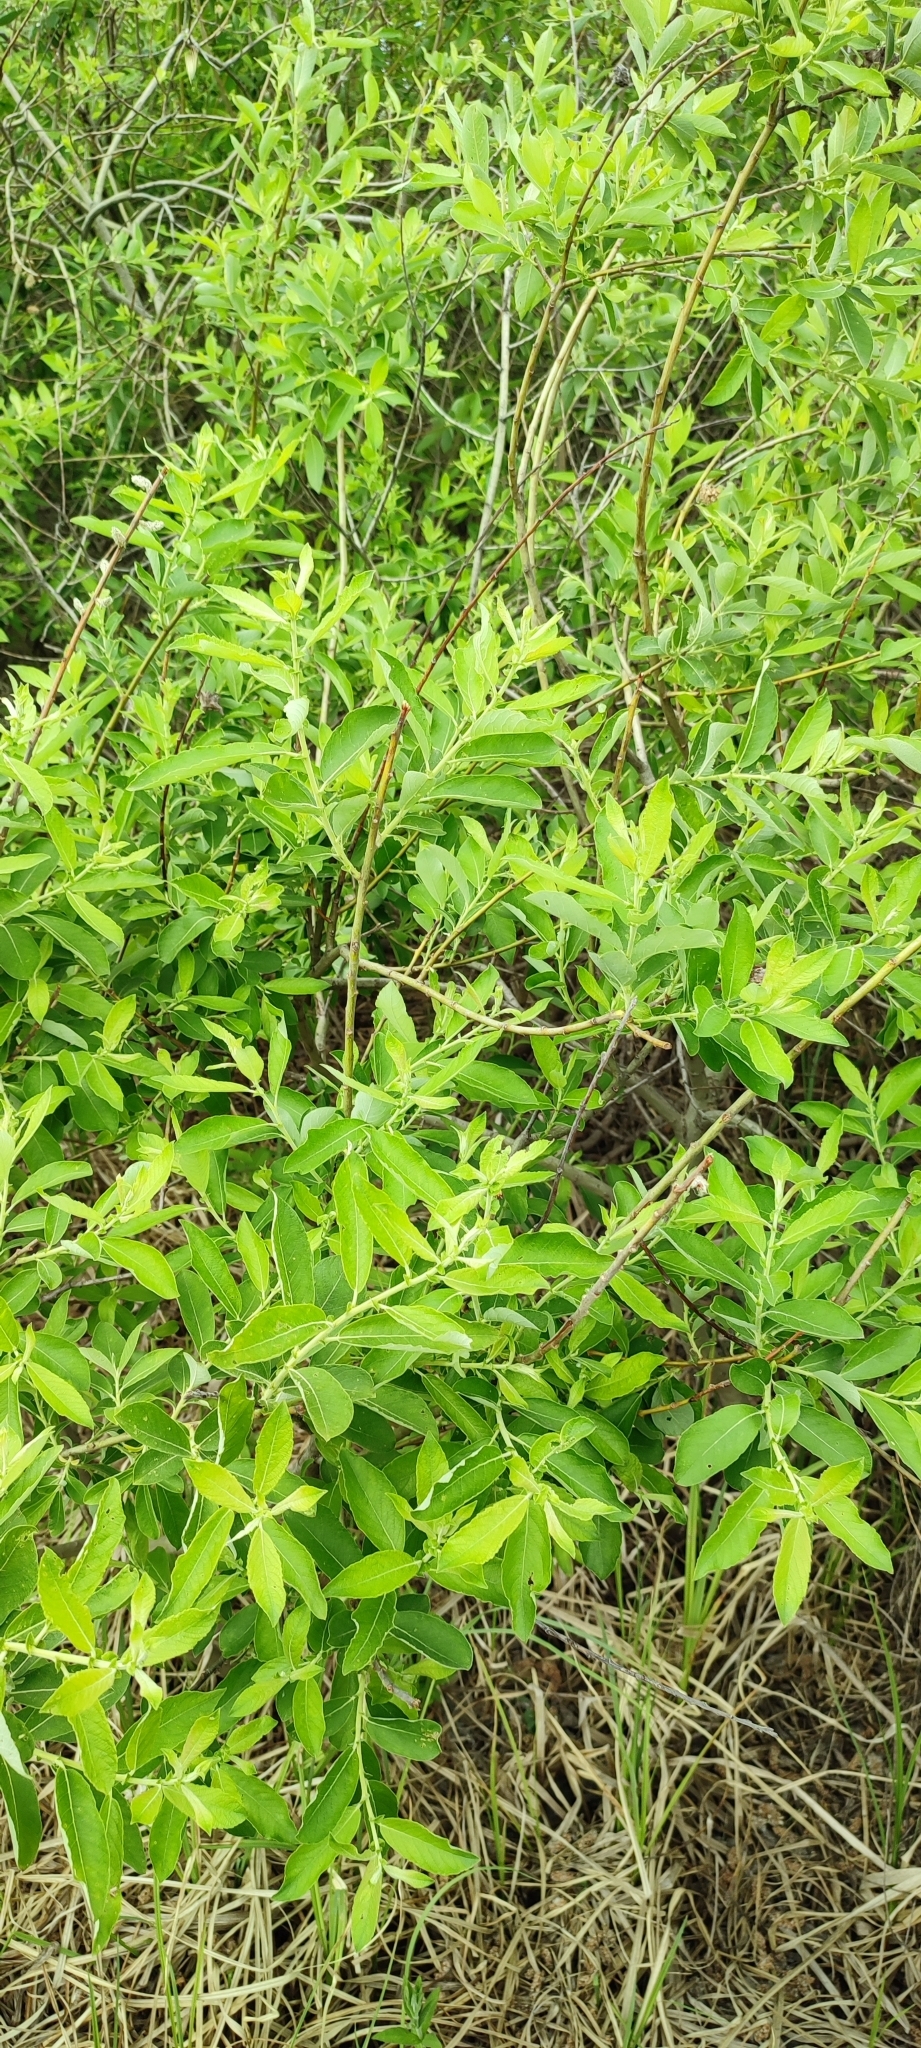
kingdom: Plantae
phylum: Tracheophyta
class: Magnoliopsida
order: Malpighiales
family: Salicaceae
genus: Salix
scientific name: Salix cinerea
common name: Common sallow
